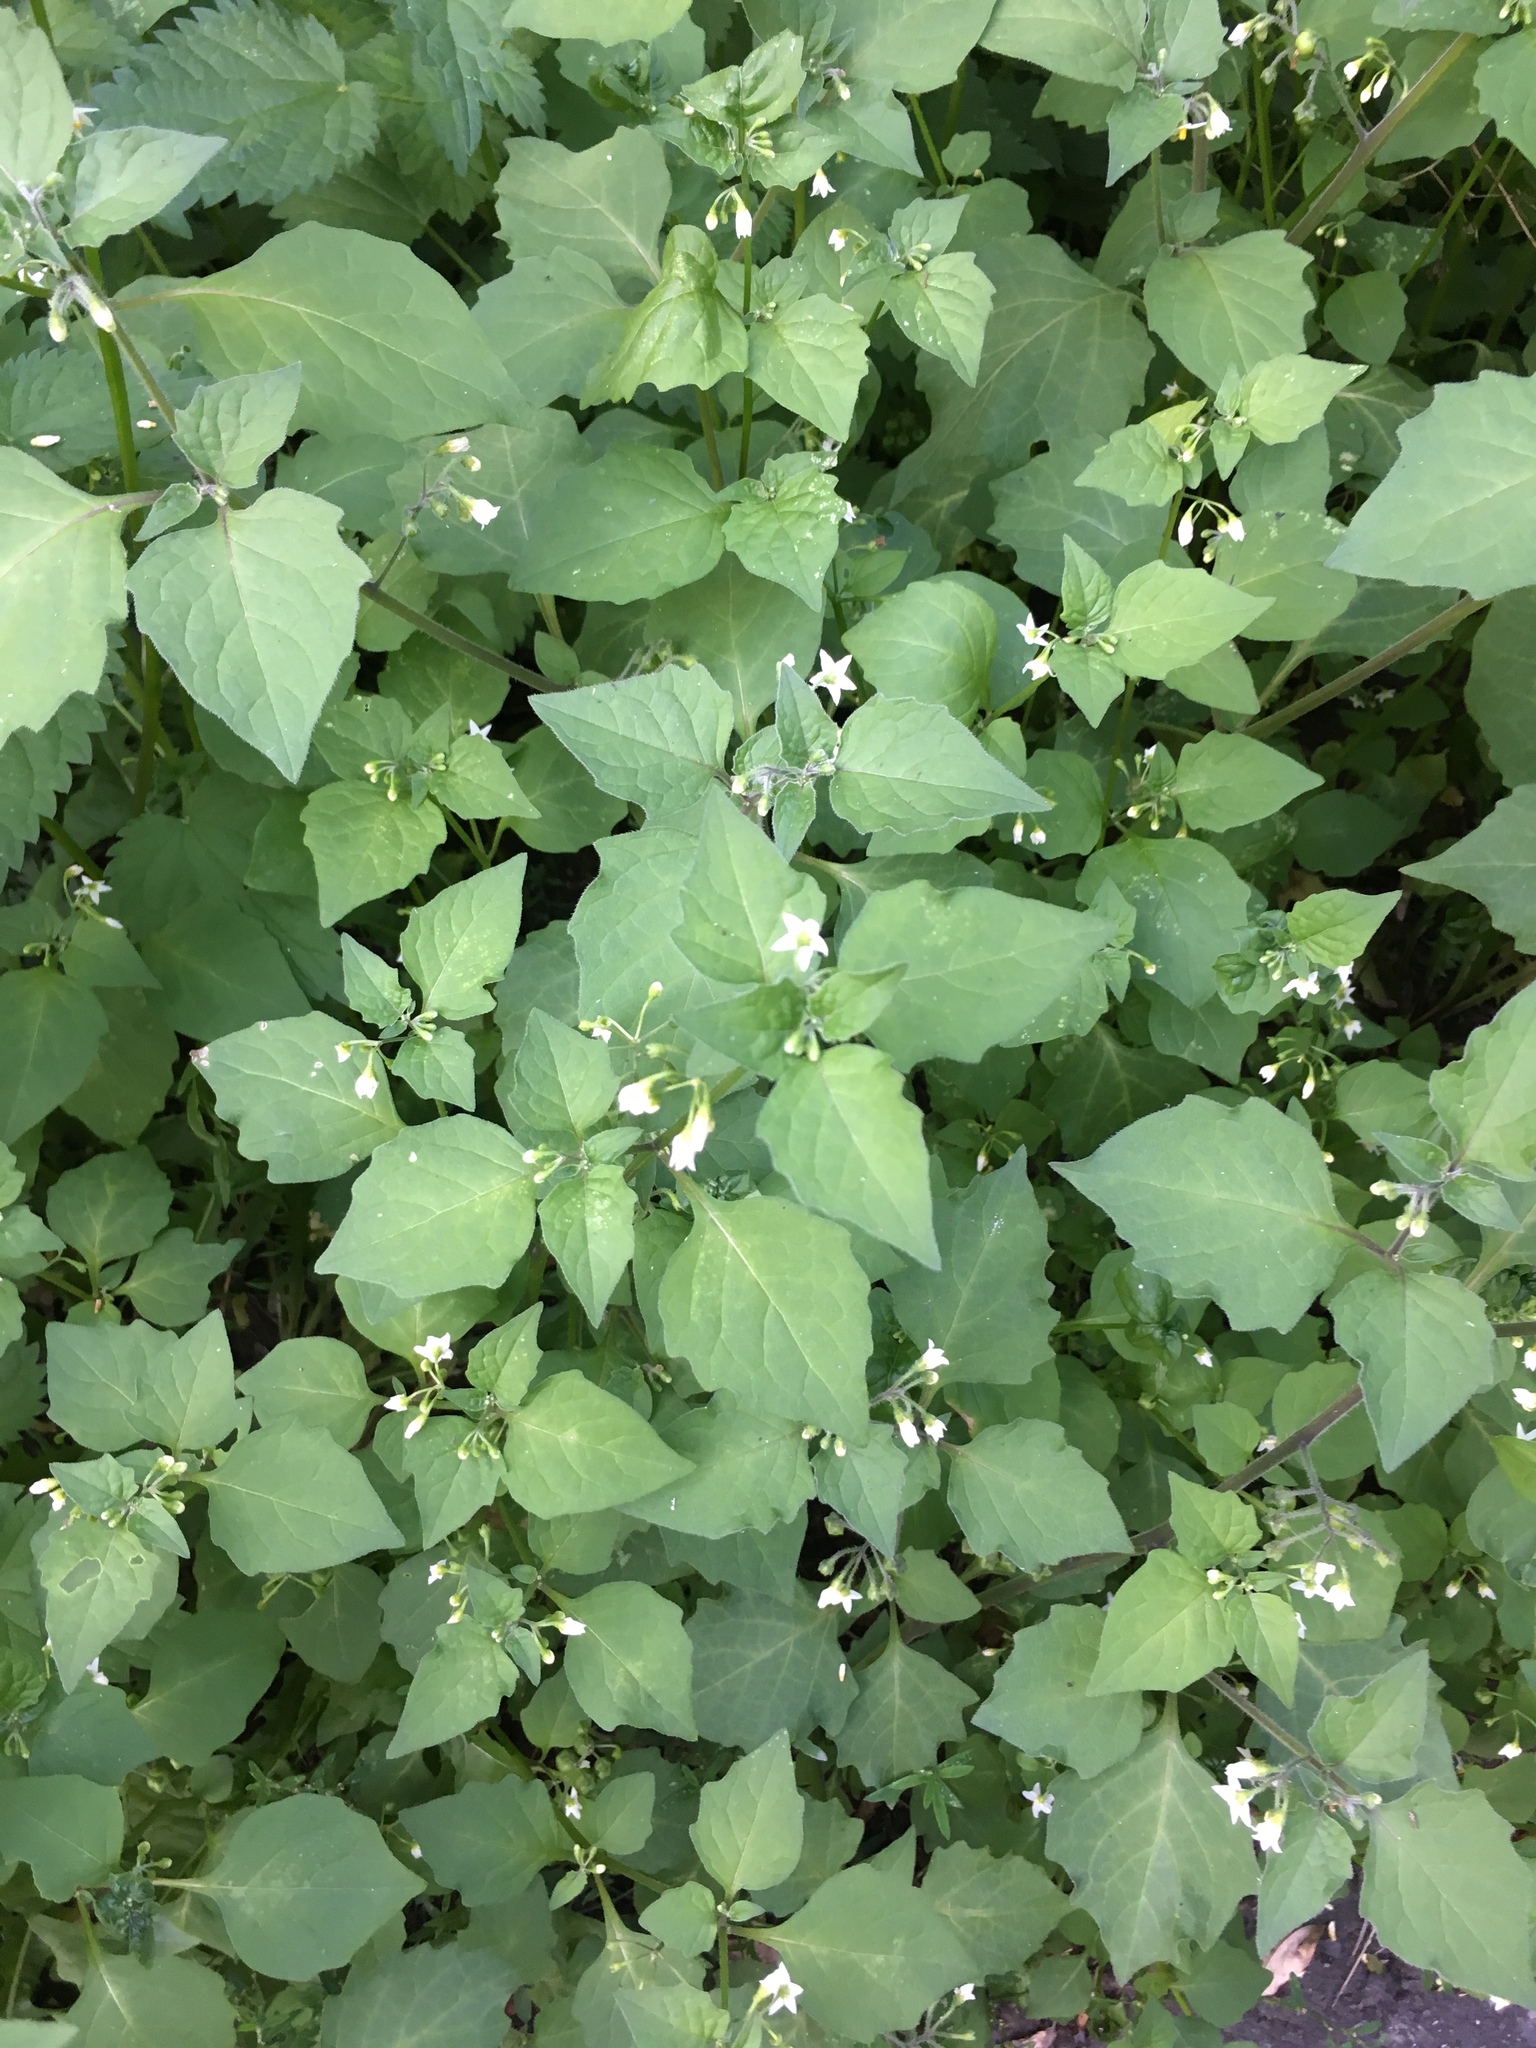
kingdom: Plantae
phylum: Tracheophyta
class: Magnoliopsida
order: Solanales
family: Solanaceae
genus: Solanum
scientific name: Solanum nigrum
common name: Black nightshade
